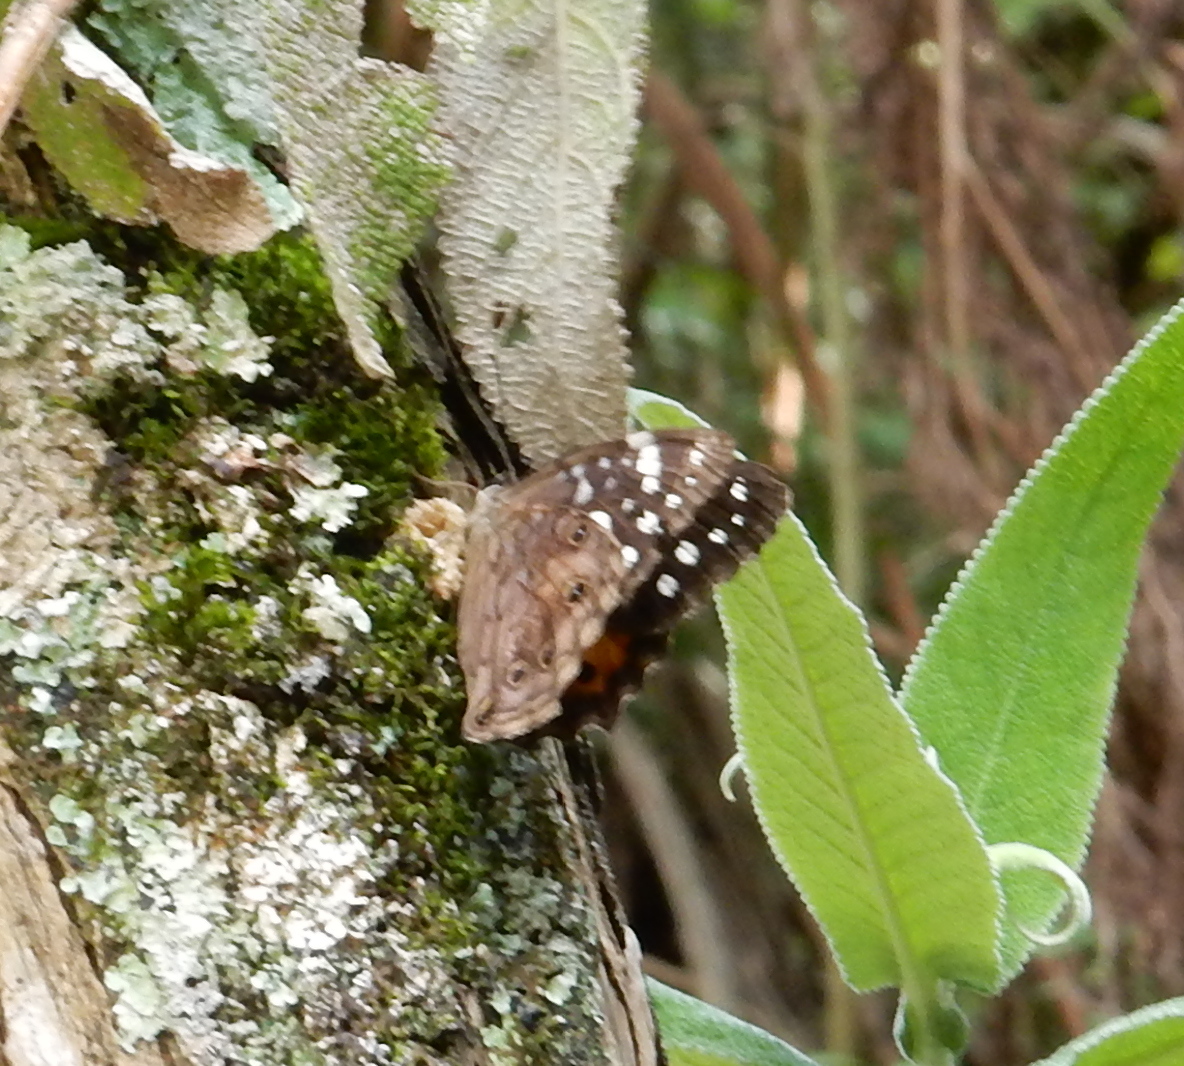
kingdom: Animalia
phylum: Arthropoda
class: Insecta
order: Lepidoptera
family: Nymphalidae
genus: Paralethe
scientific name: Paralethe dendrophilus
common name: Bush beauty
